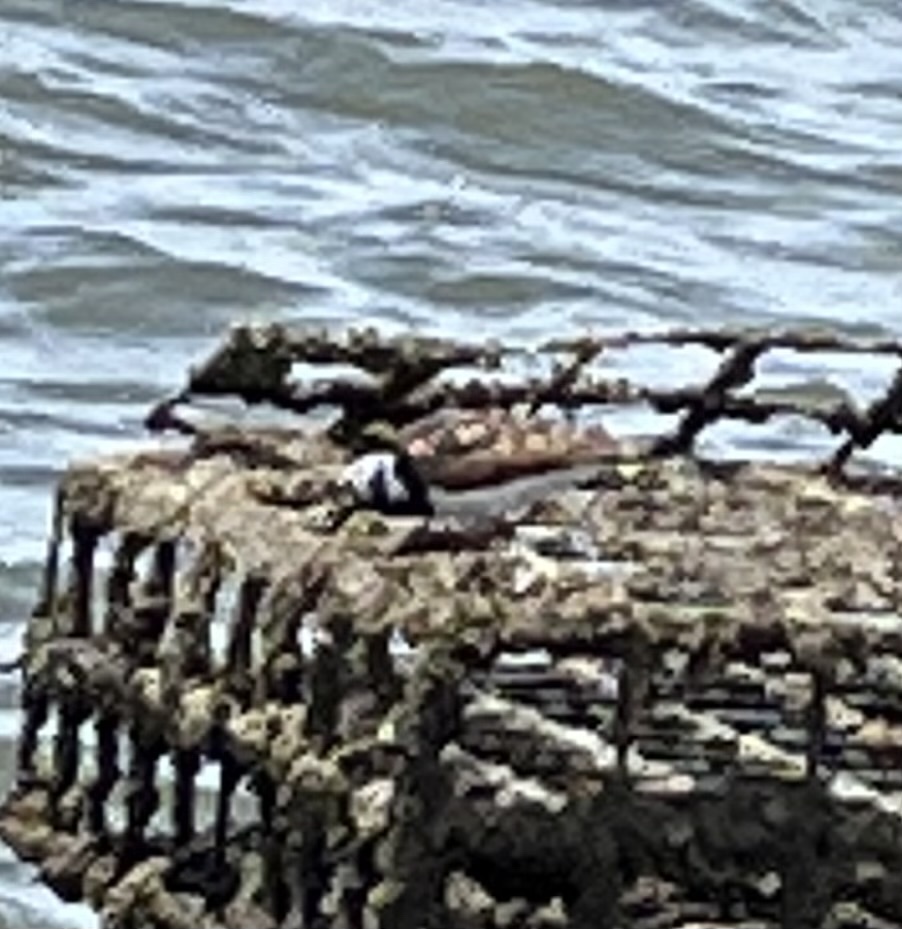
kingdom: Animalia
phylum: Chordata
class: Aves
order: Charadriiformes
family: Scolopacidae
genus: Arenaria
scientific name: Arenaria interpres
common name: Ruddy turnstone
